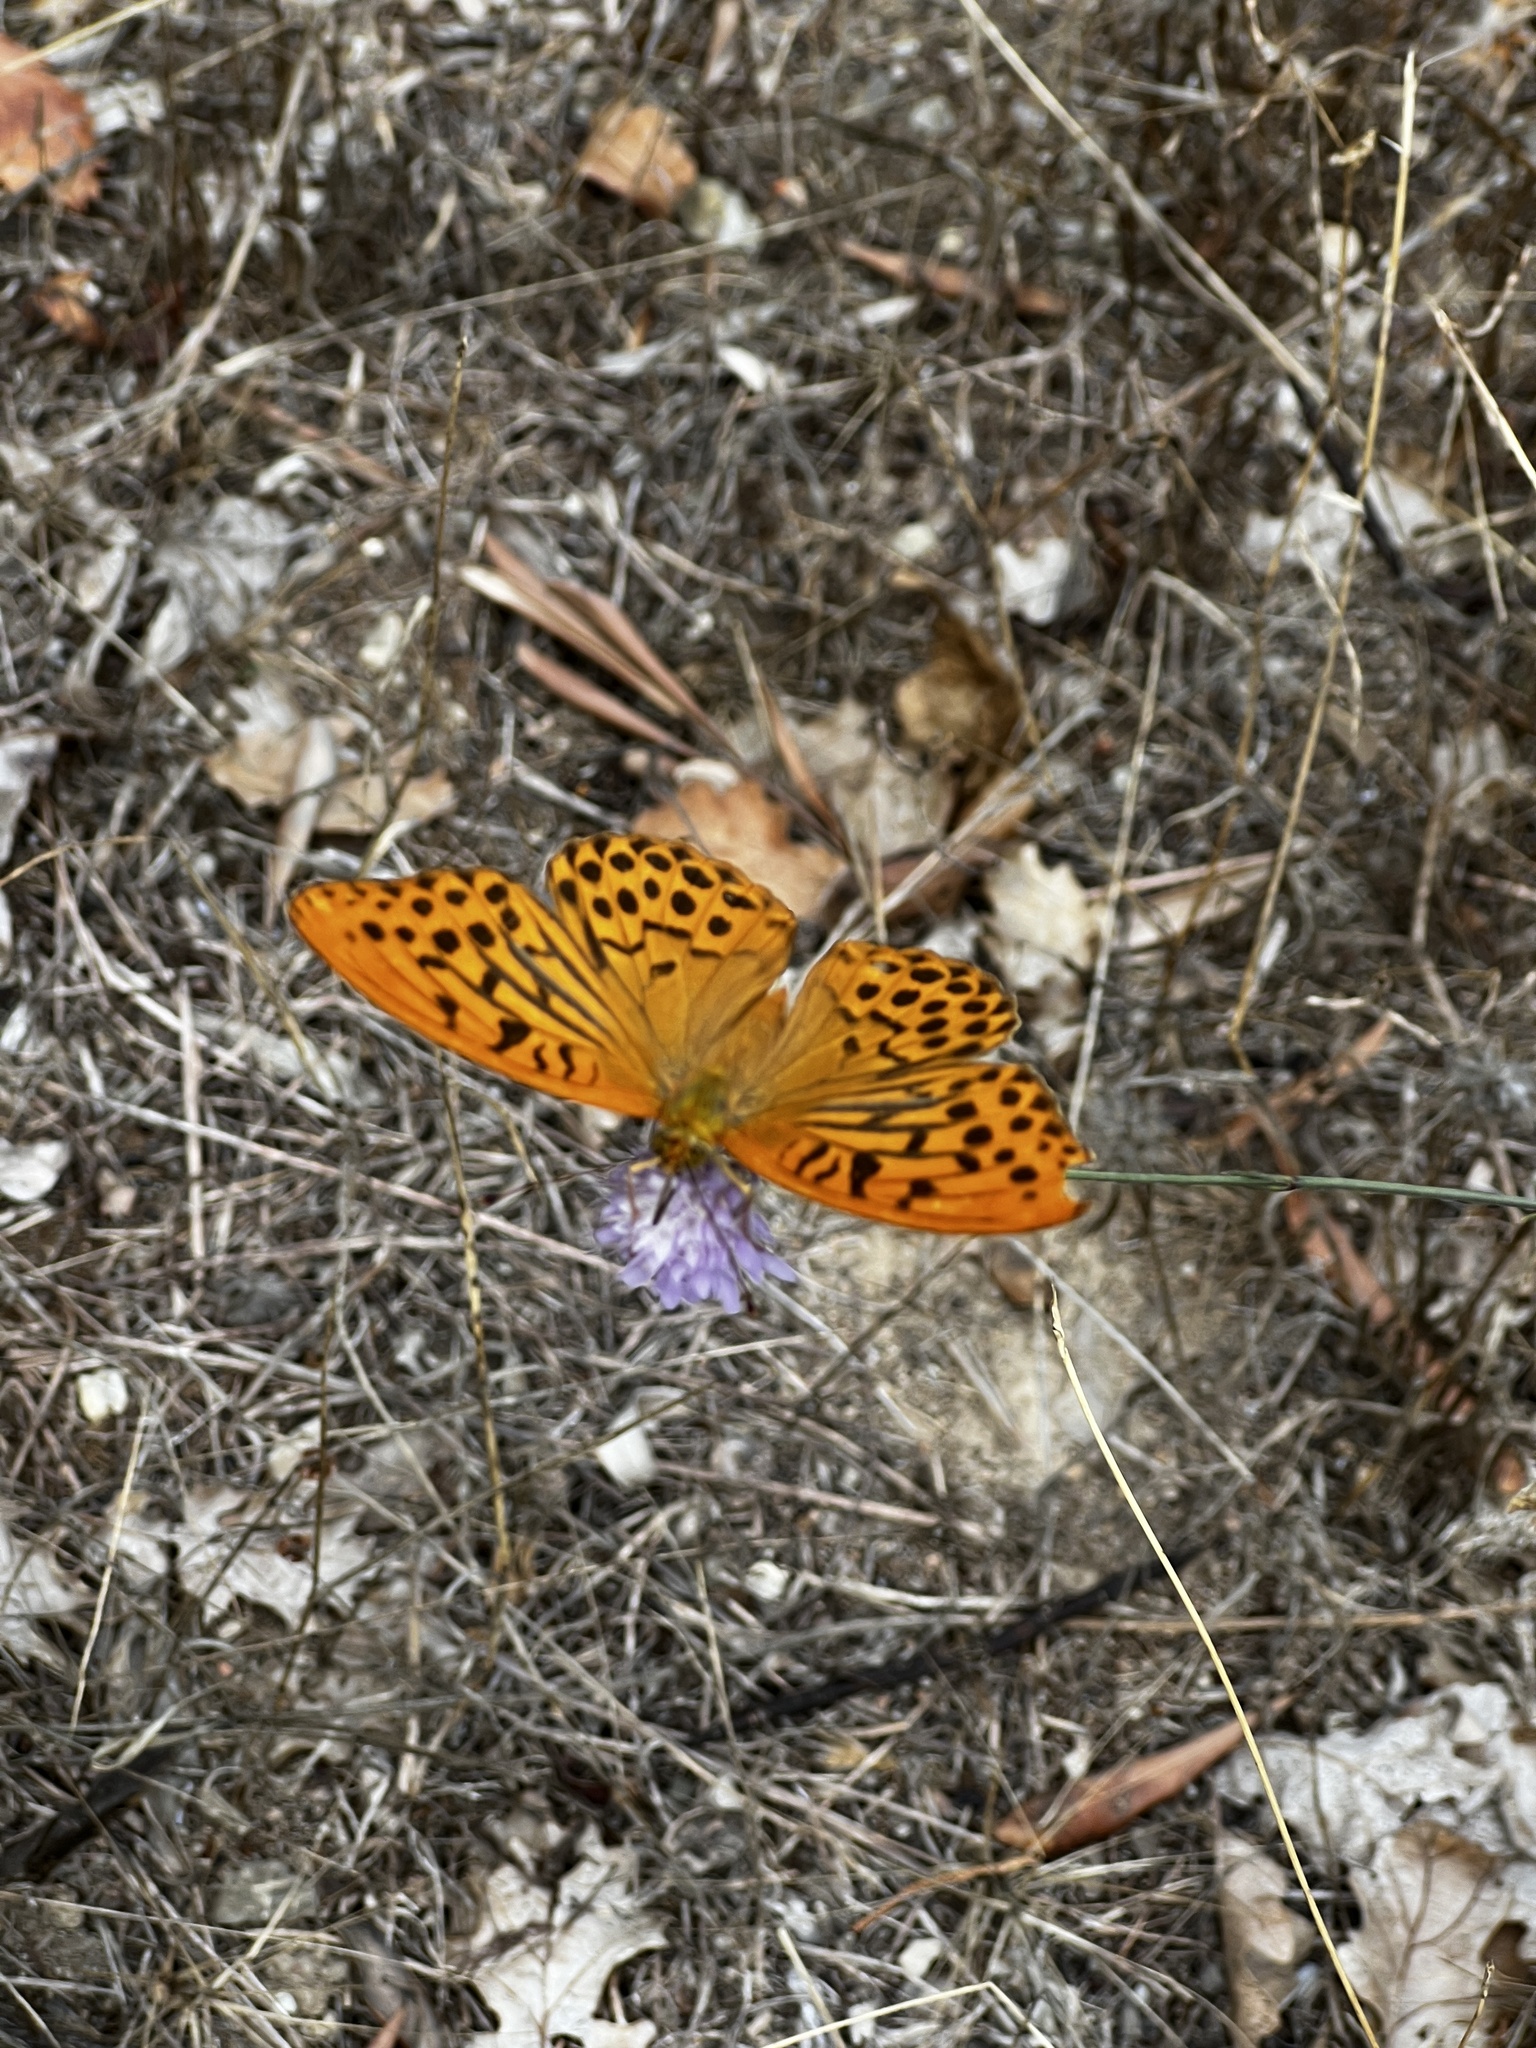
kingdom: Animalia
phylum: Arthropoda
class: Insecta
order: Lepidoptera
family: Nymphalidae
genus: Argynnis
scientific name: Argynnis paphia
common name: Silver-washed fritillary
